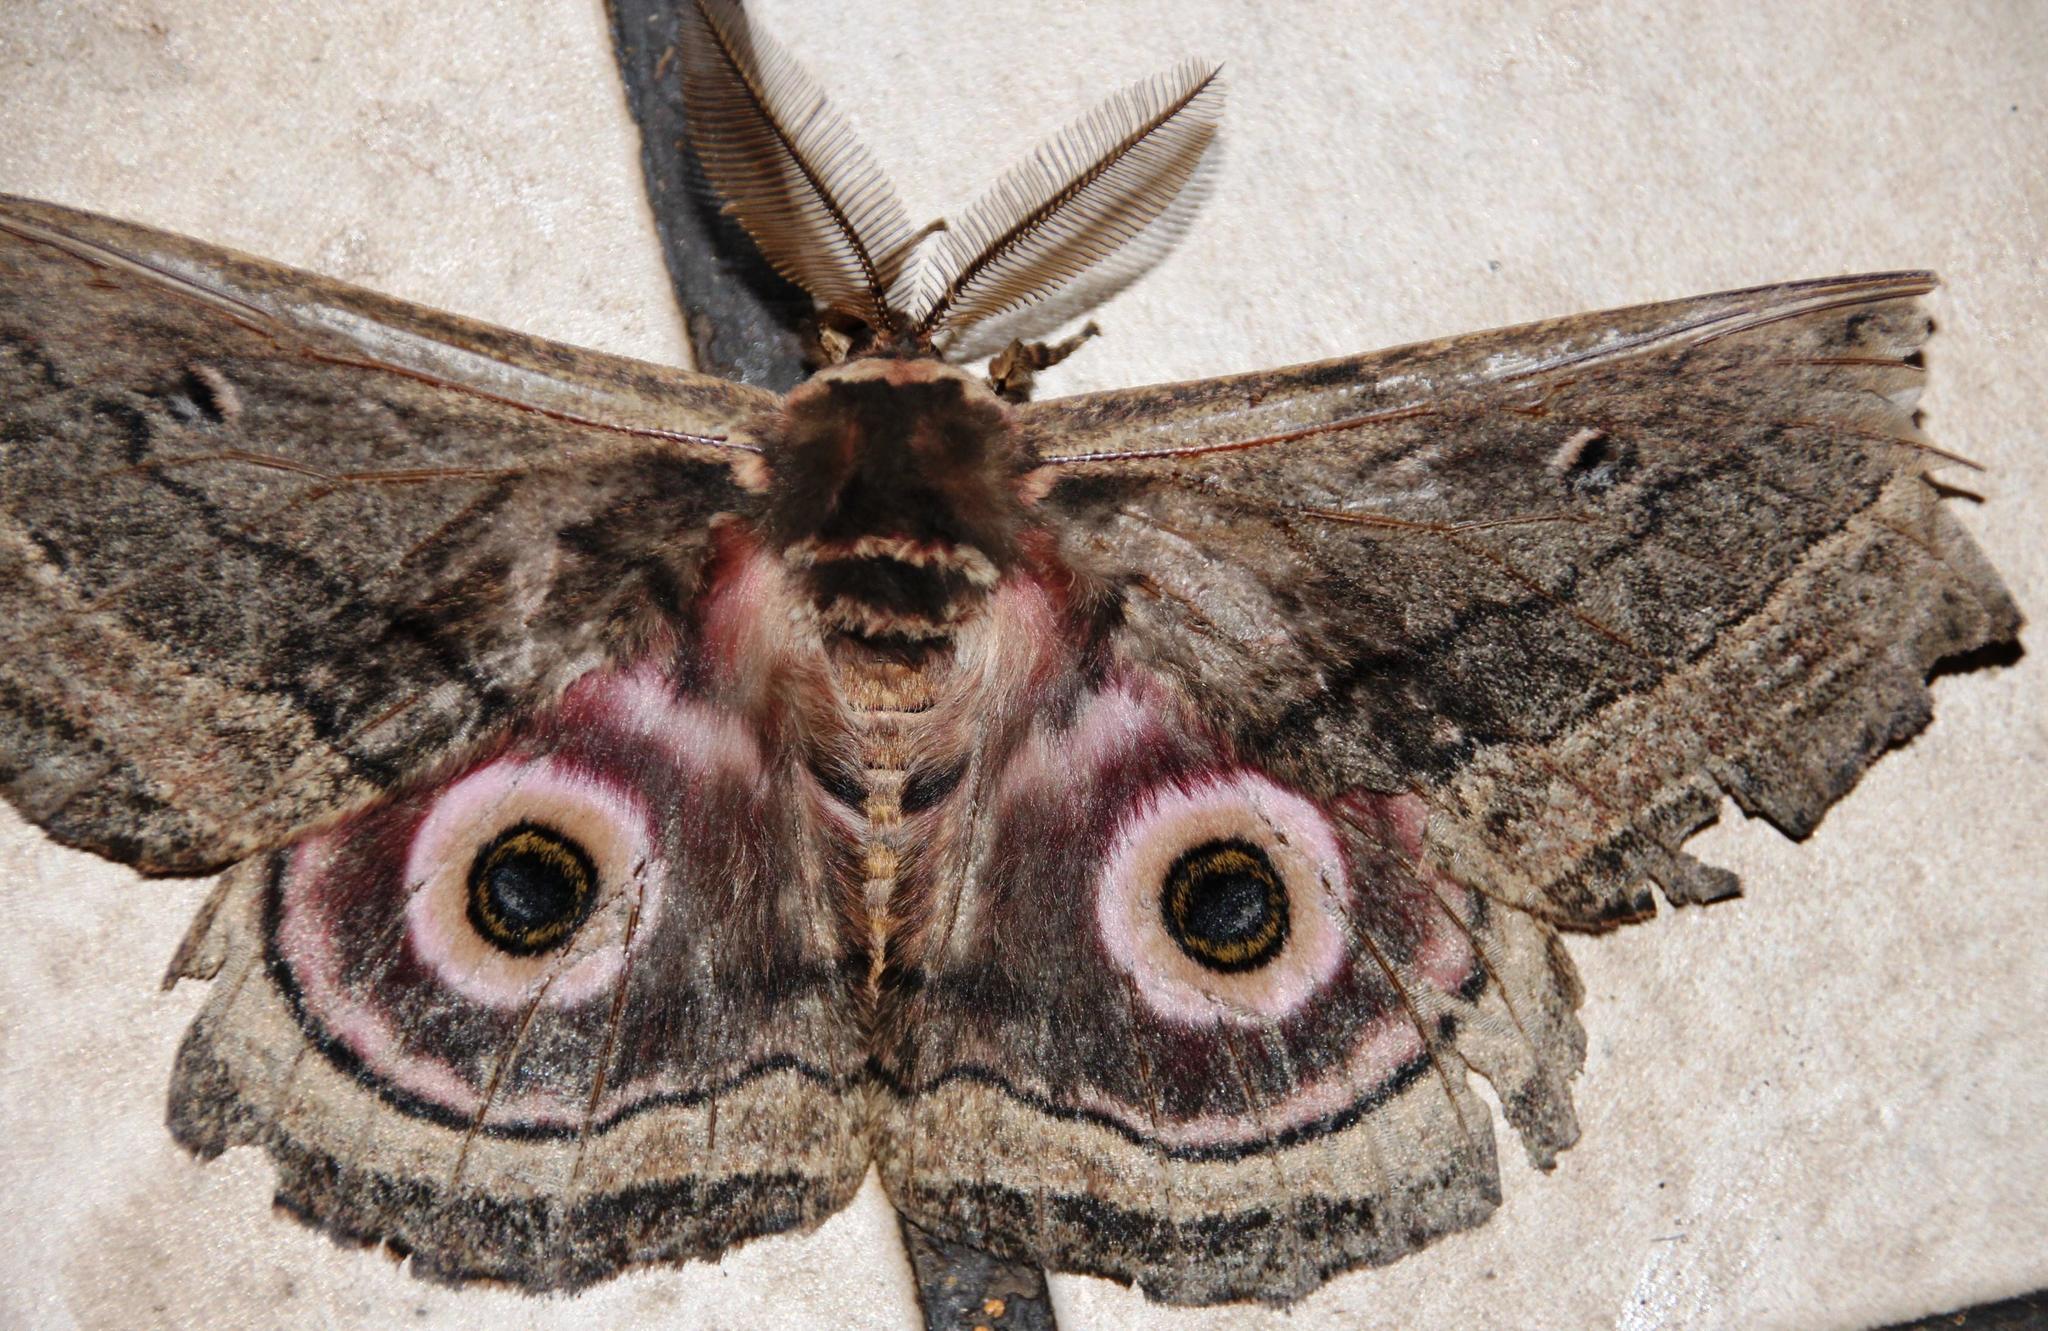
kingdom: Animalia
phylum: Arthropoda
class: Insecta
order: Lepidoptera
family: Saturniidae
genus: Gynanisa
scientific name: Gynanisa maja
